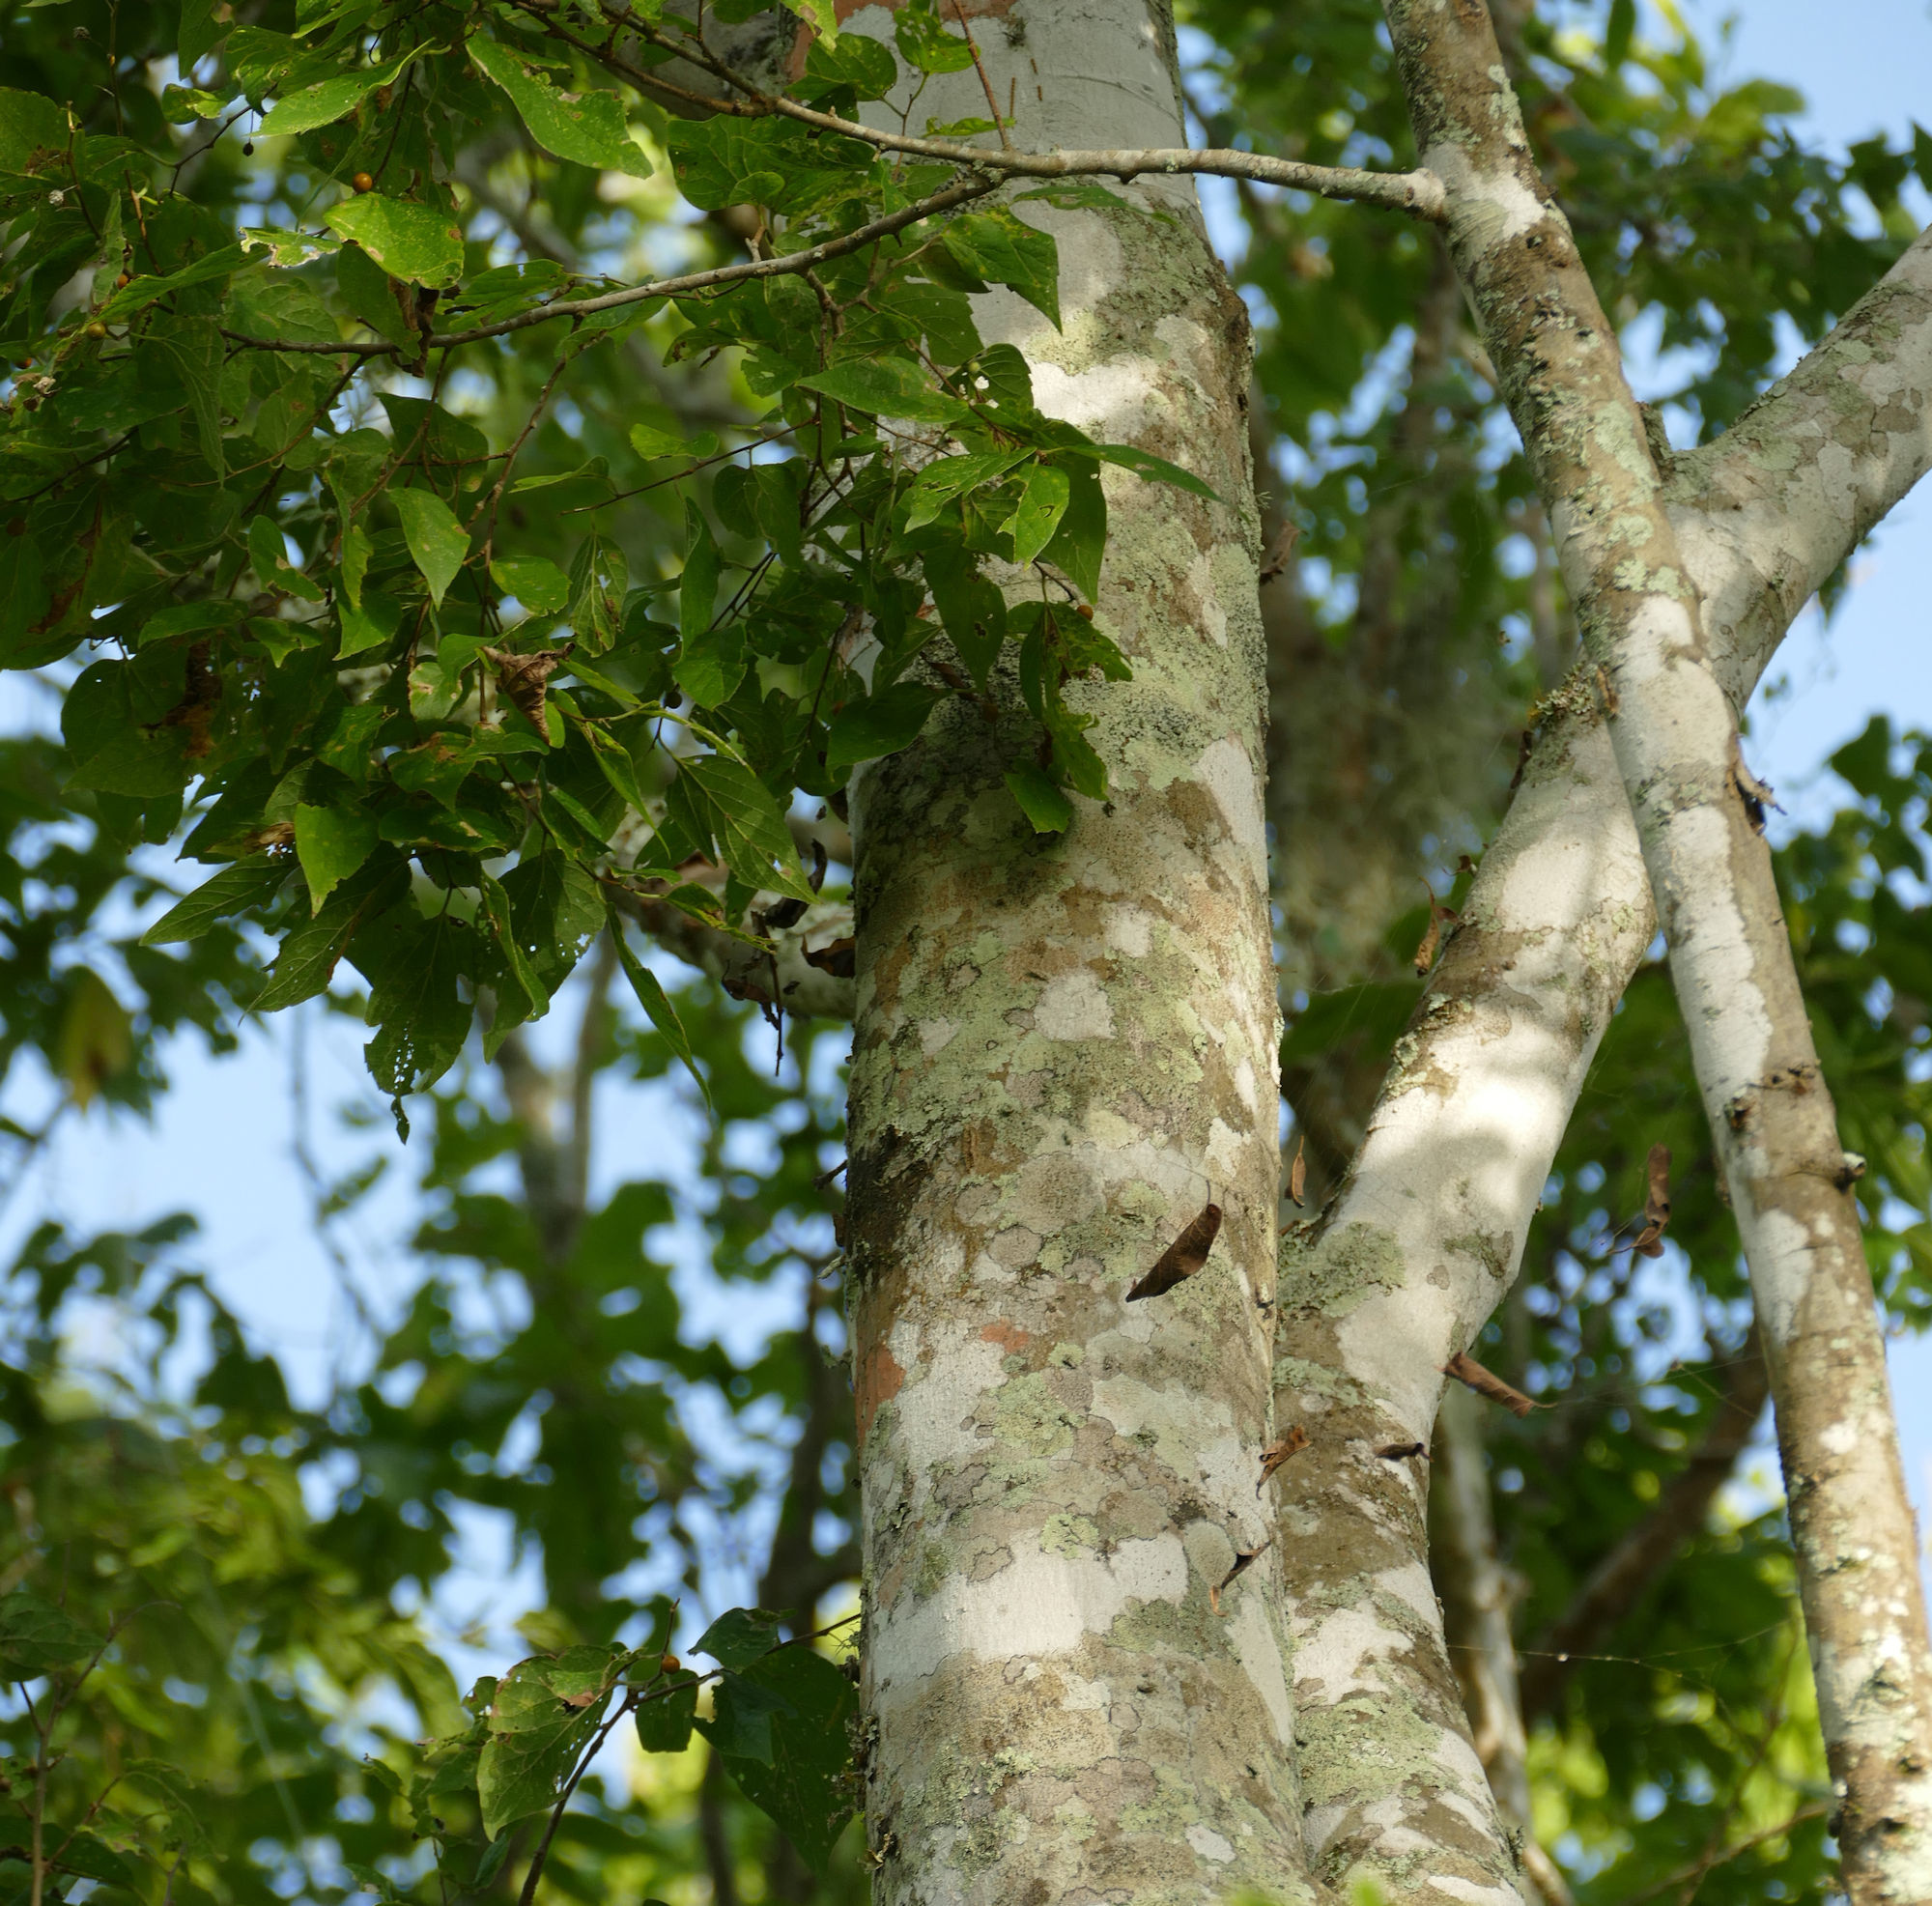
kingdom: Plantae
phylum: Tracheophyta
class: Magnoliopsida
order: Rosales
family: Cannabaceae
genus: Celtis
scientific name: Celtis laevigata
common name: Sugarberry
